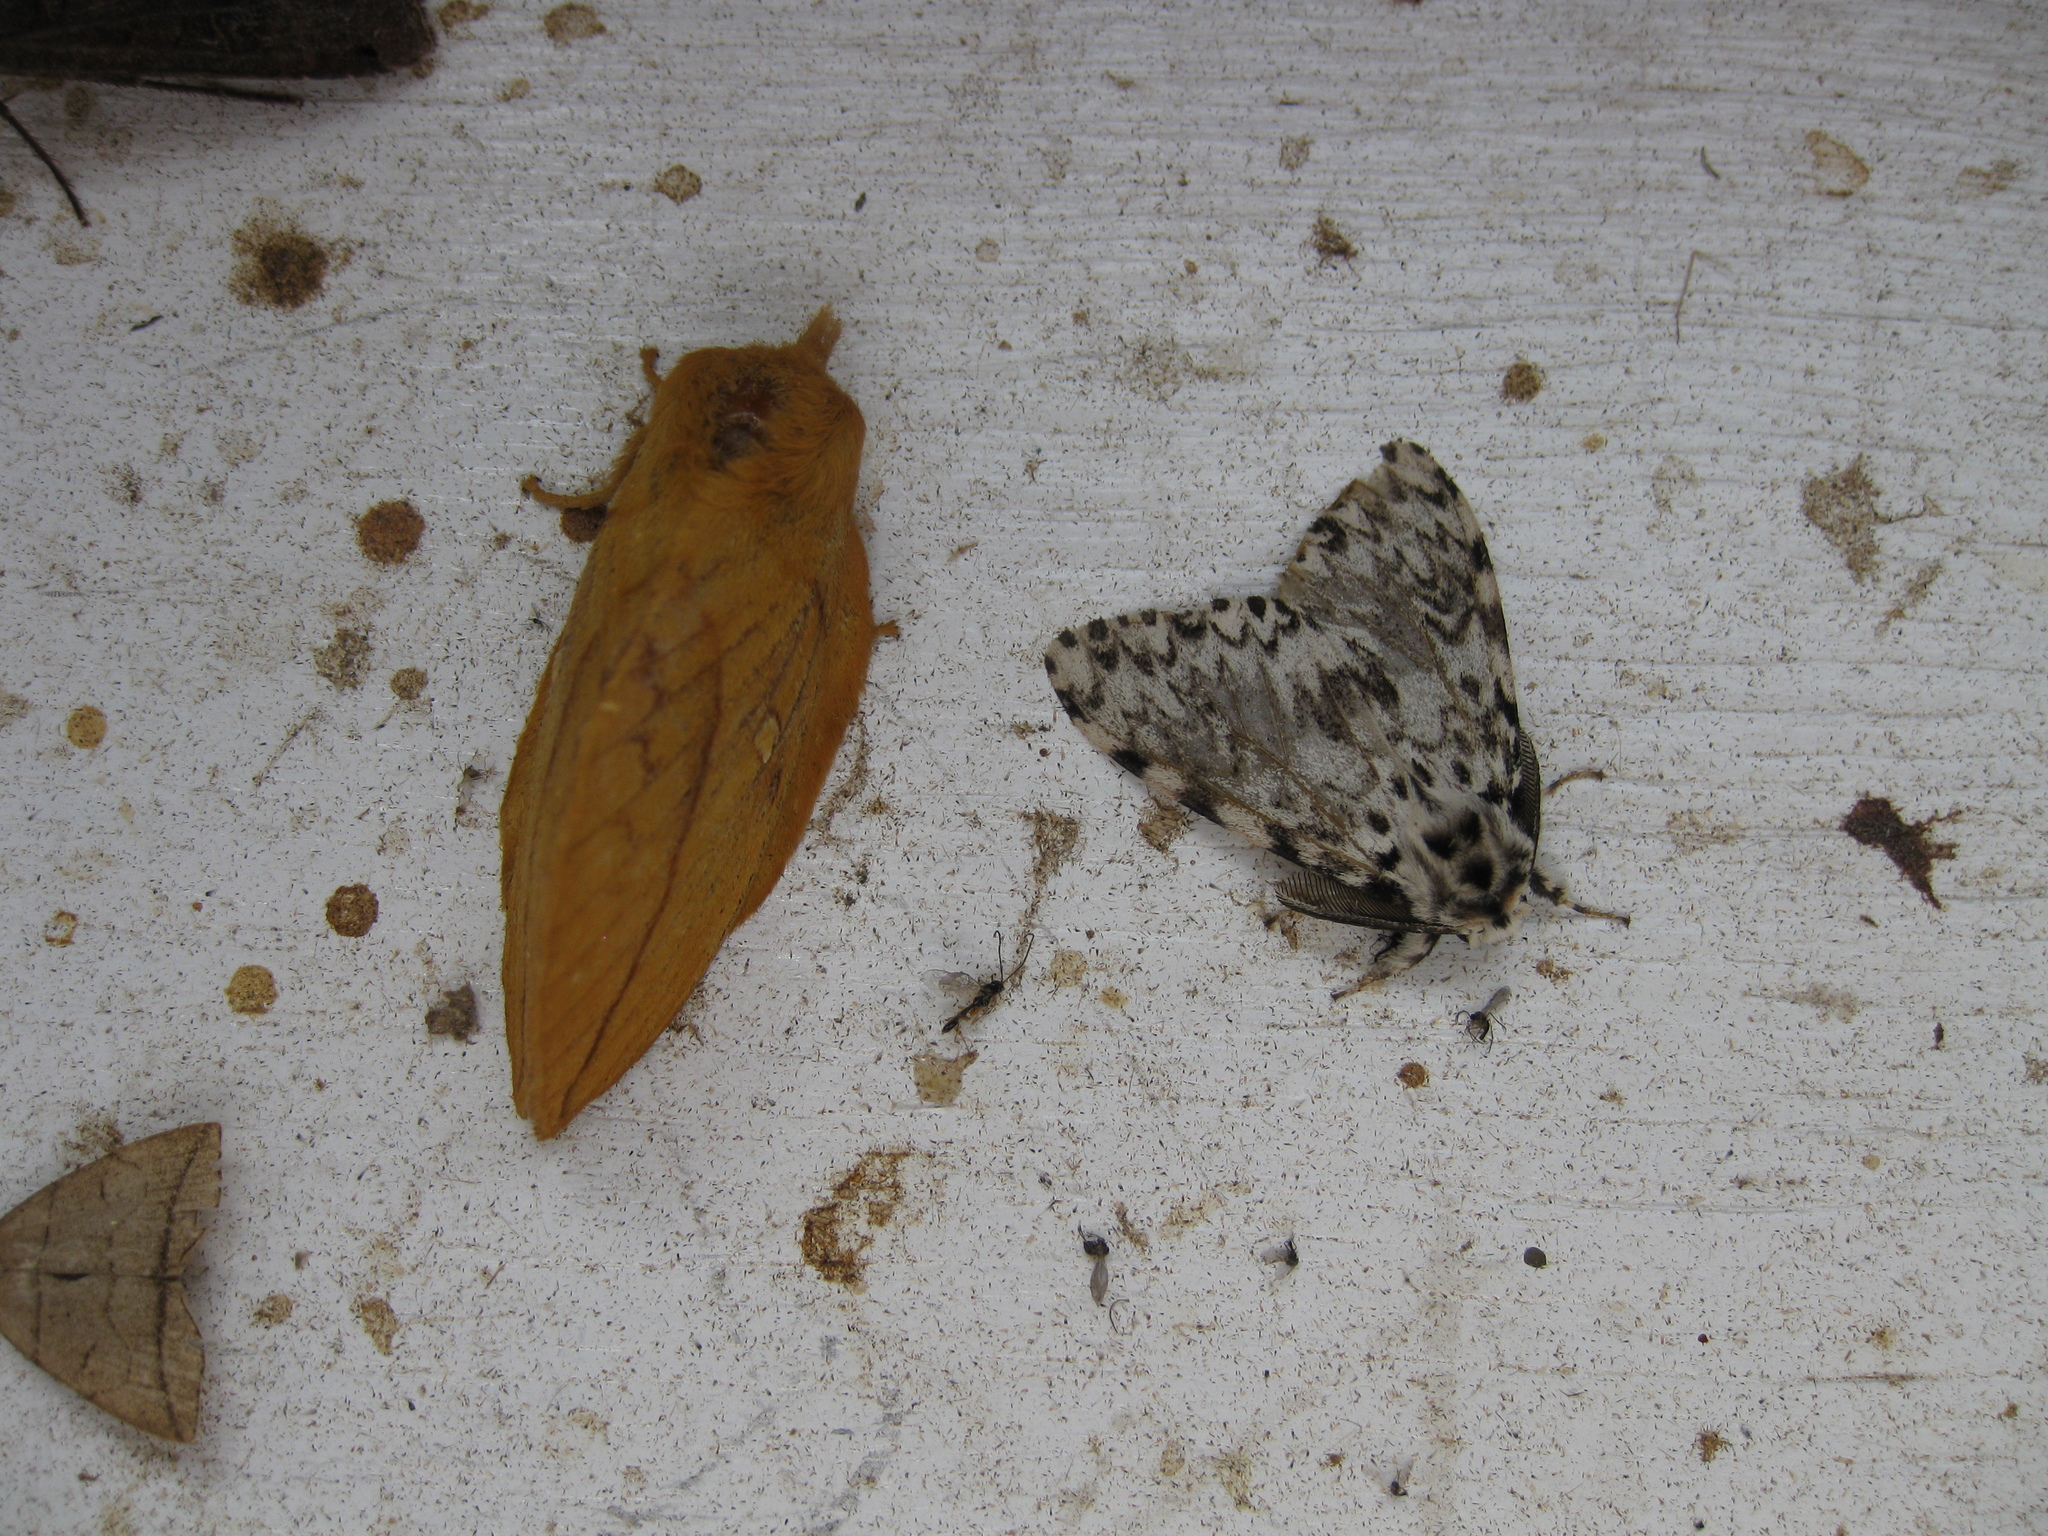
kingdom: Animalia
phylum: Arthropoda
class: Insecta
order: Lepidoptera
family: Erebidae
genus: Lymantria
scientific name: Lymantria monacha
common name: Black arches
